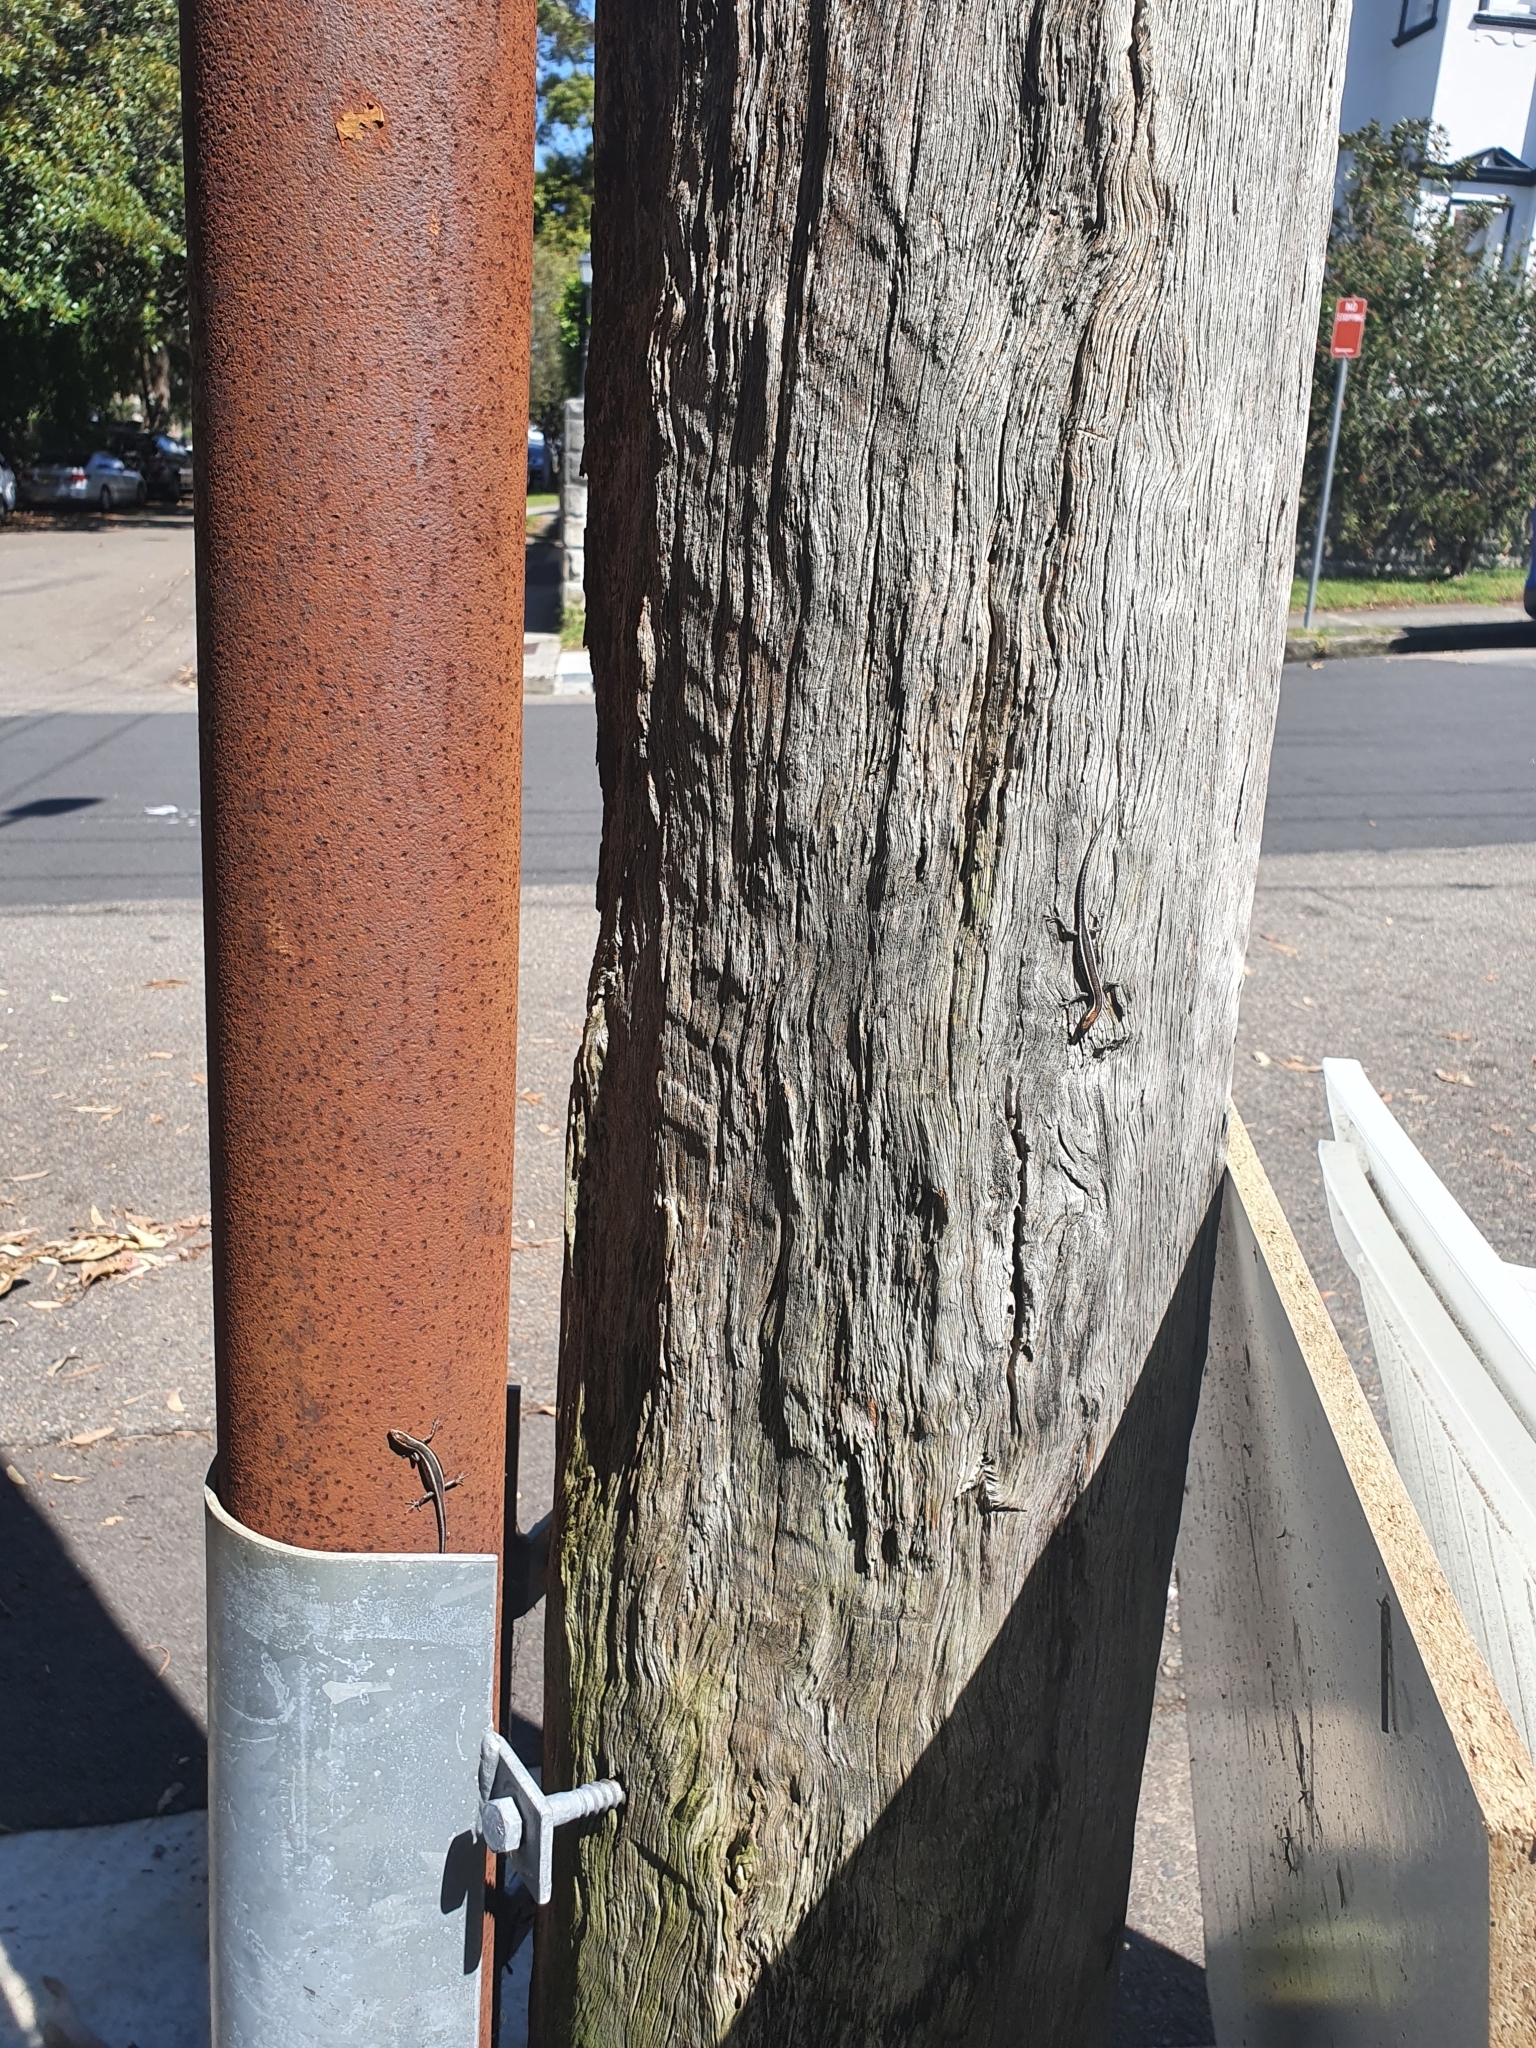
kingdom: Animalia
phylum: Chordata
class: Squamata
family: Scincidae
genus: Cryptoblepharus
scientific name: Cryptoblepharus pulcher
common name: Elegant snake-eyed skink
